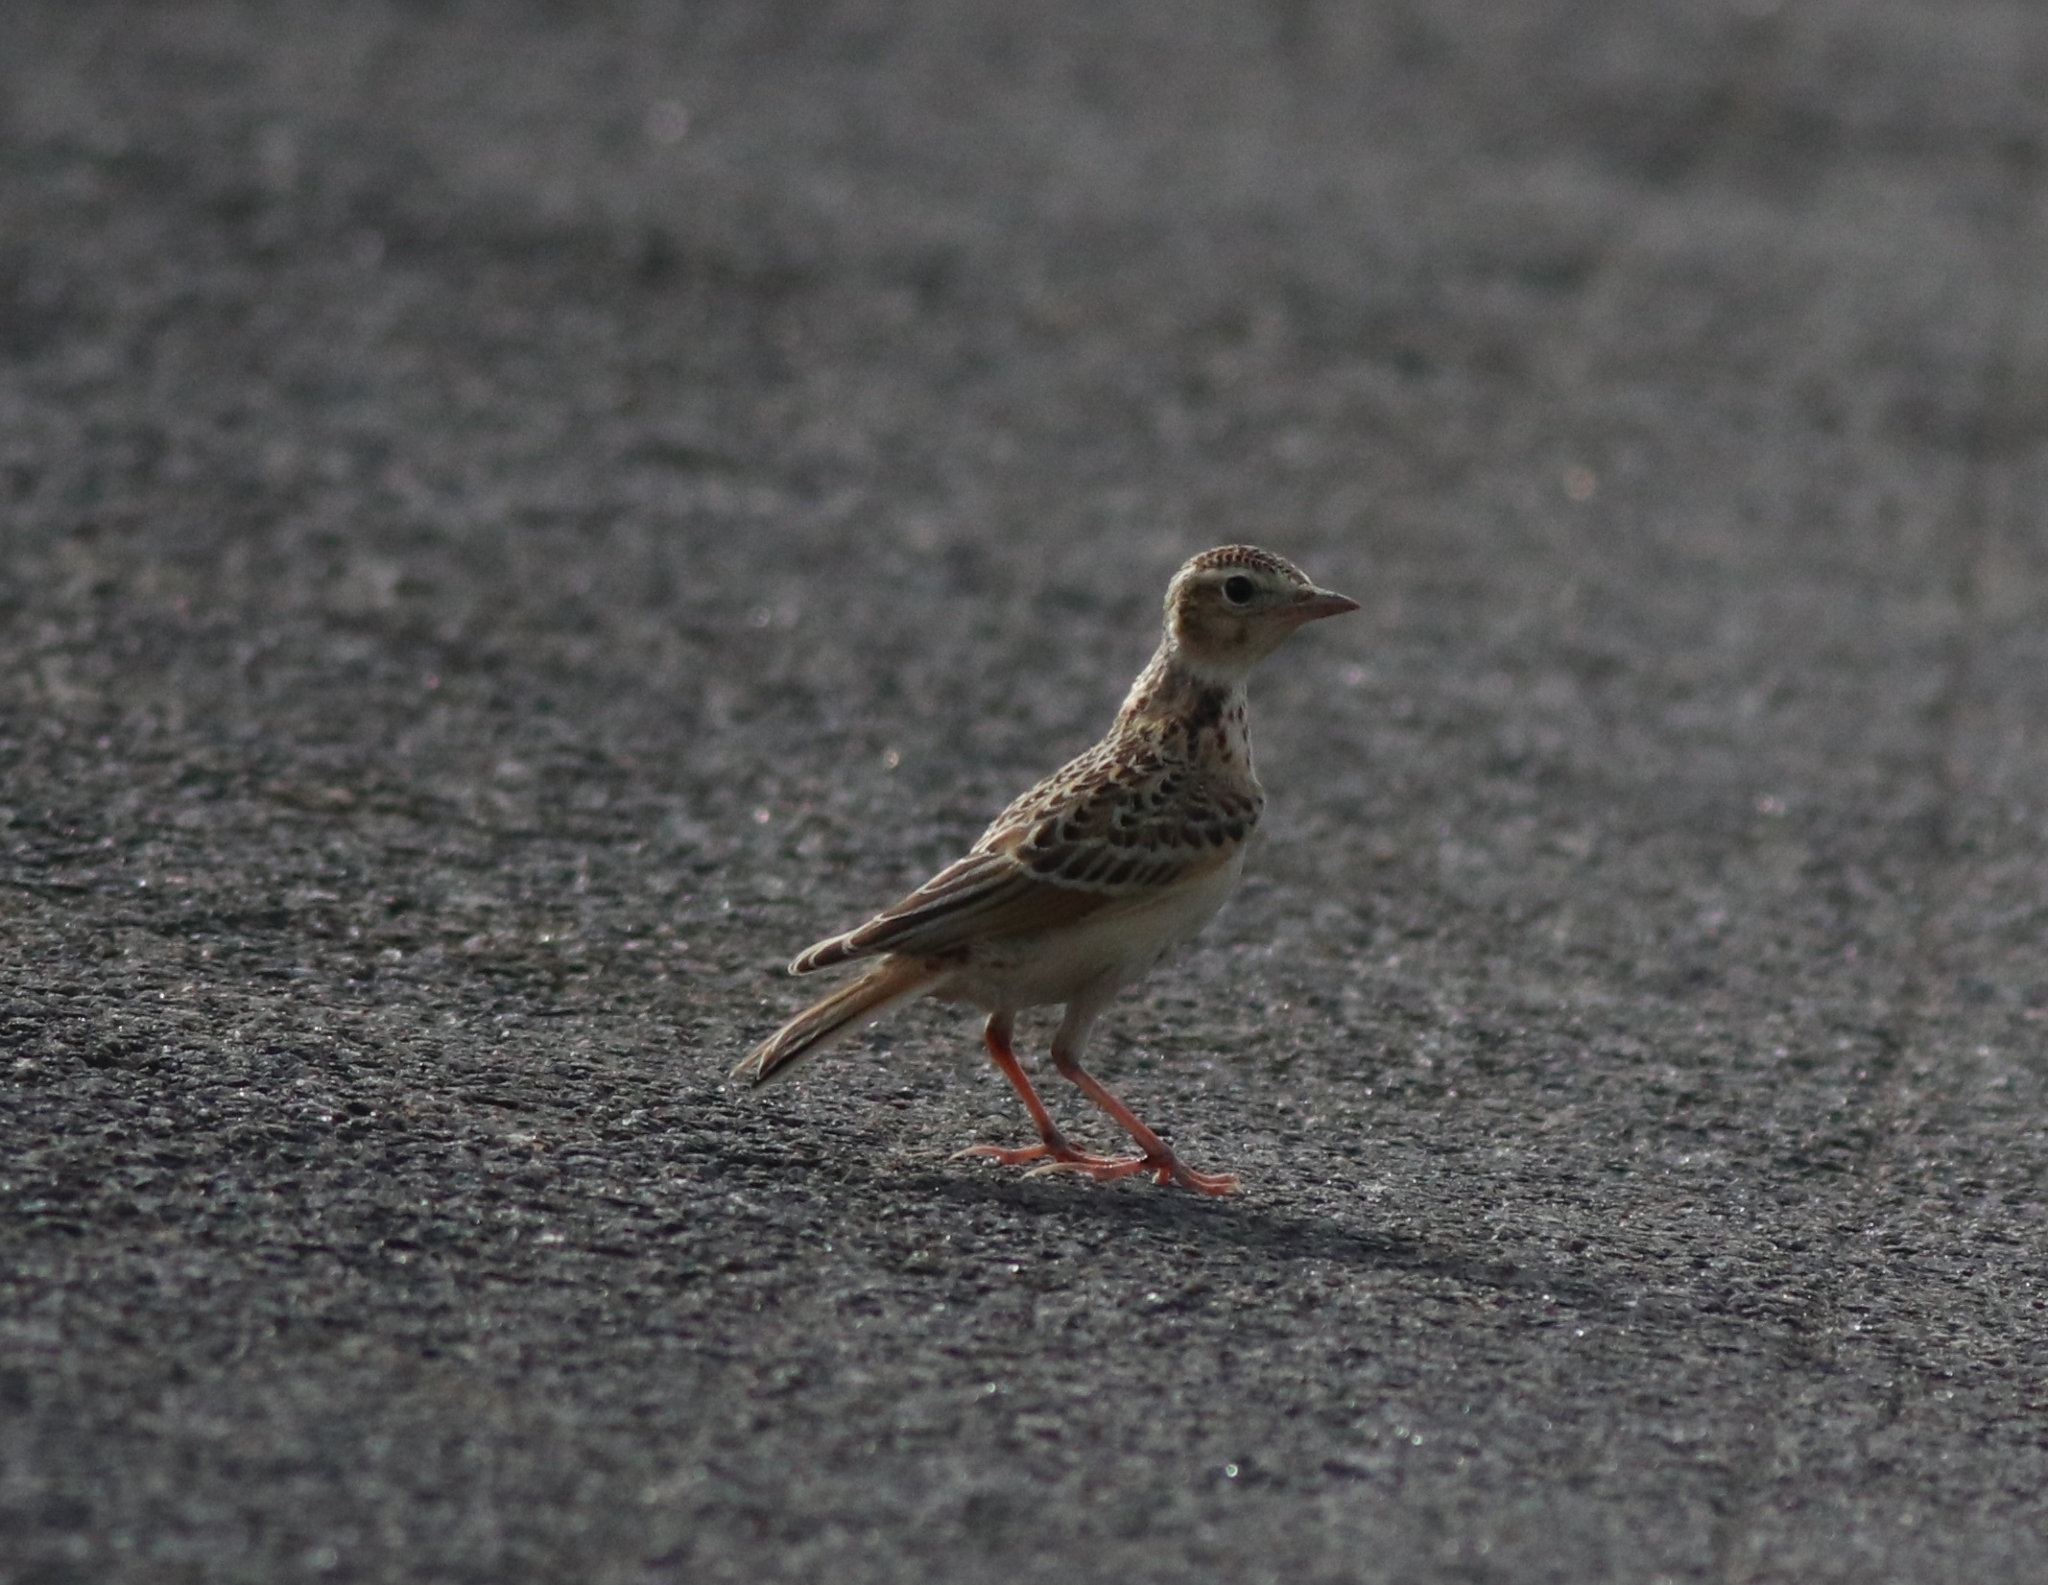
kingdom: Animalia
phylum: Chordata
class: Aves
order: Passeriformes
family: Alaudidae
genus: Alauda
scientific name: Alauda gulgula
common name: Oriental skylark
